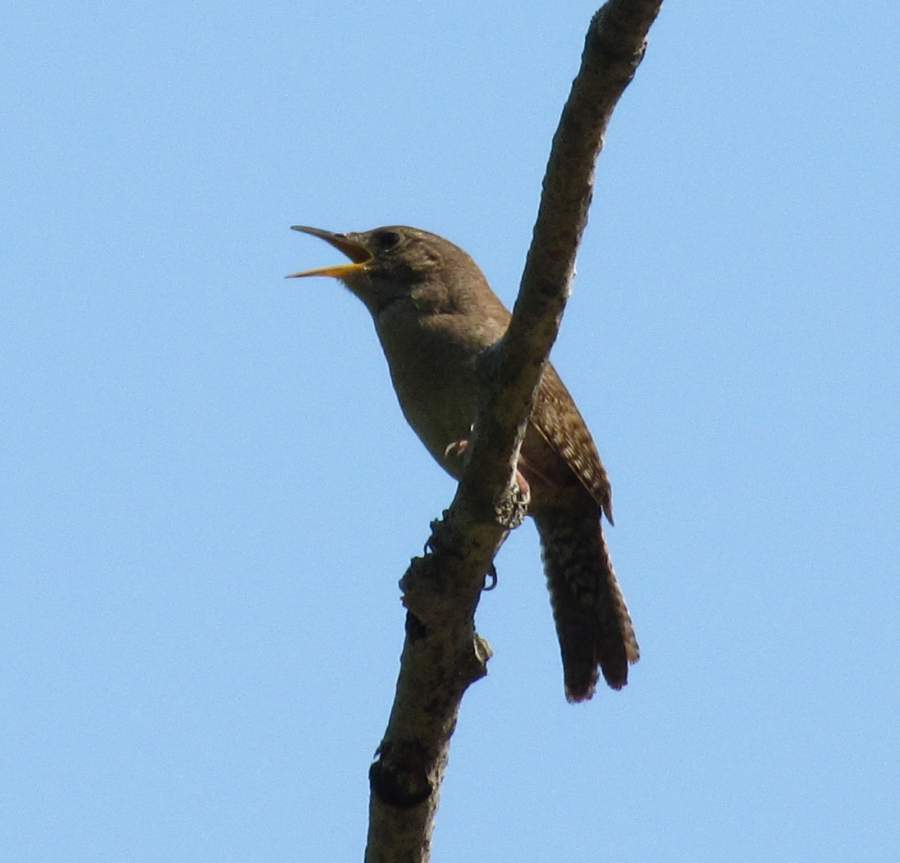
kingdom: Animalia
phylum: Chordata
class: Aves
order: Passeriformes
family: Troglodytidae
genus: Troglodytes
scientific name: Troglodytes aedon
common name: House wren
